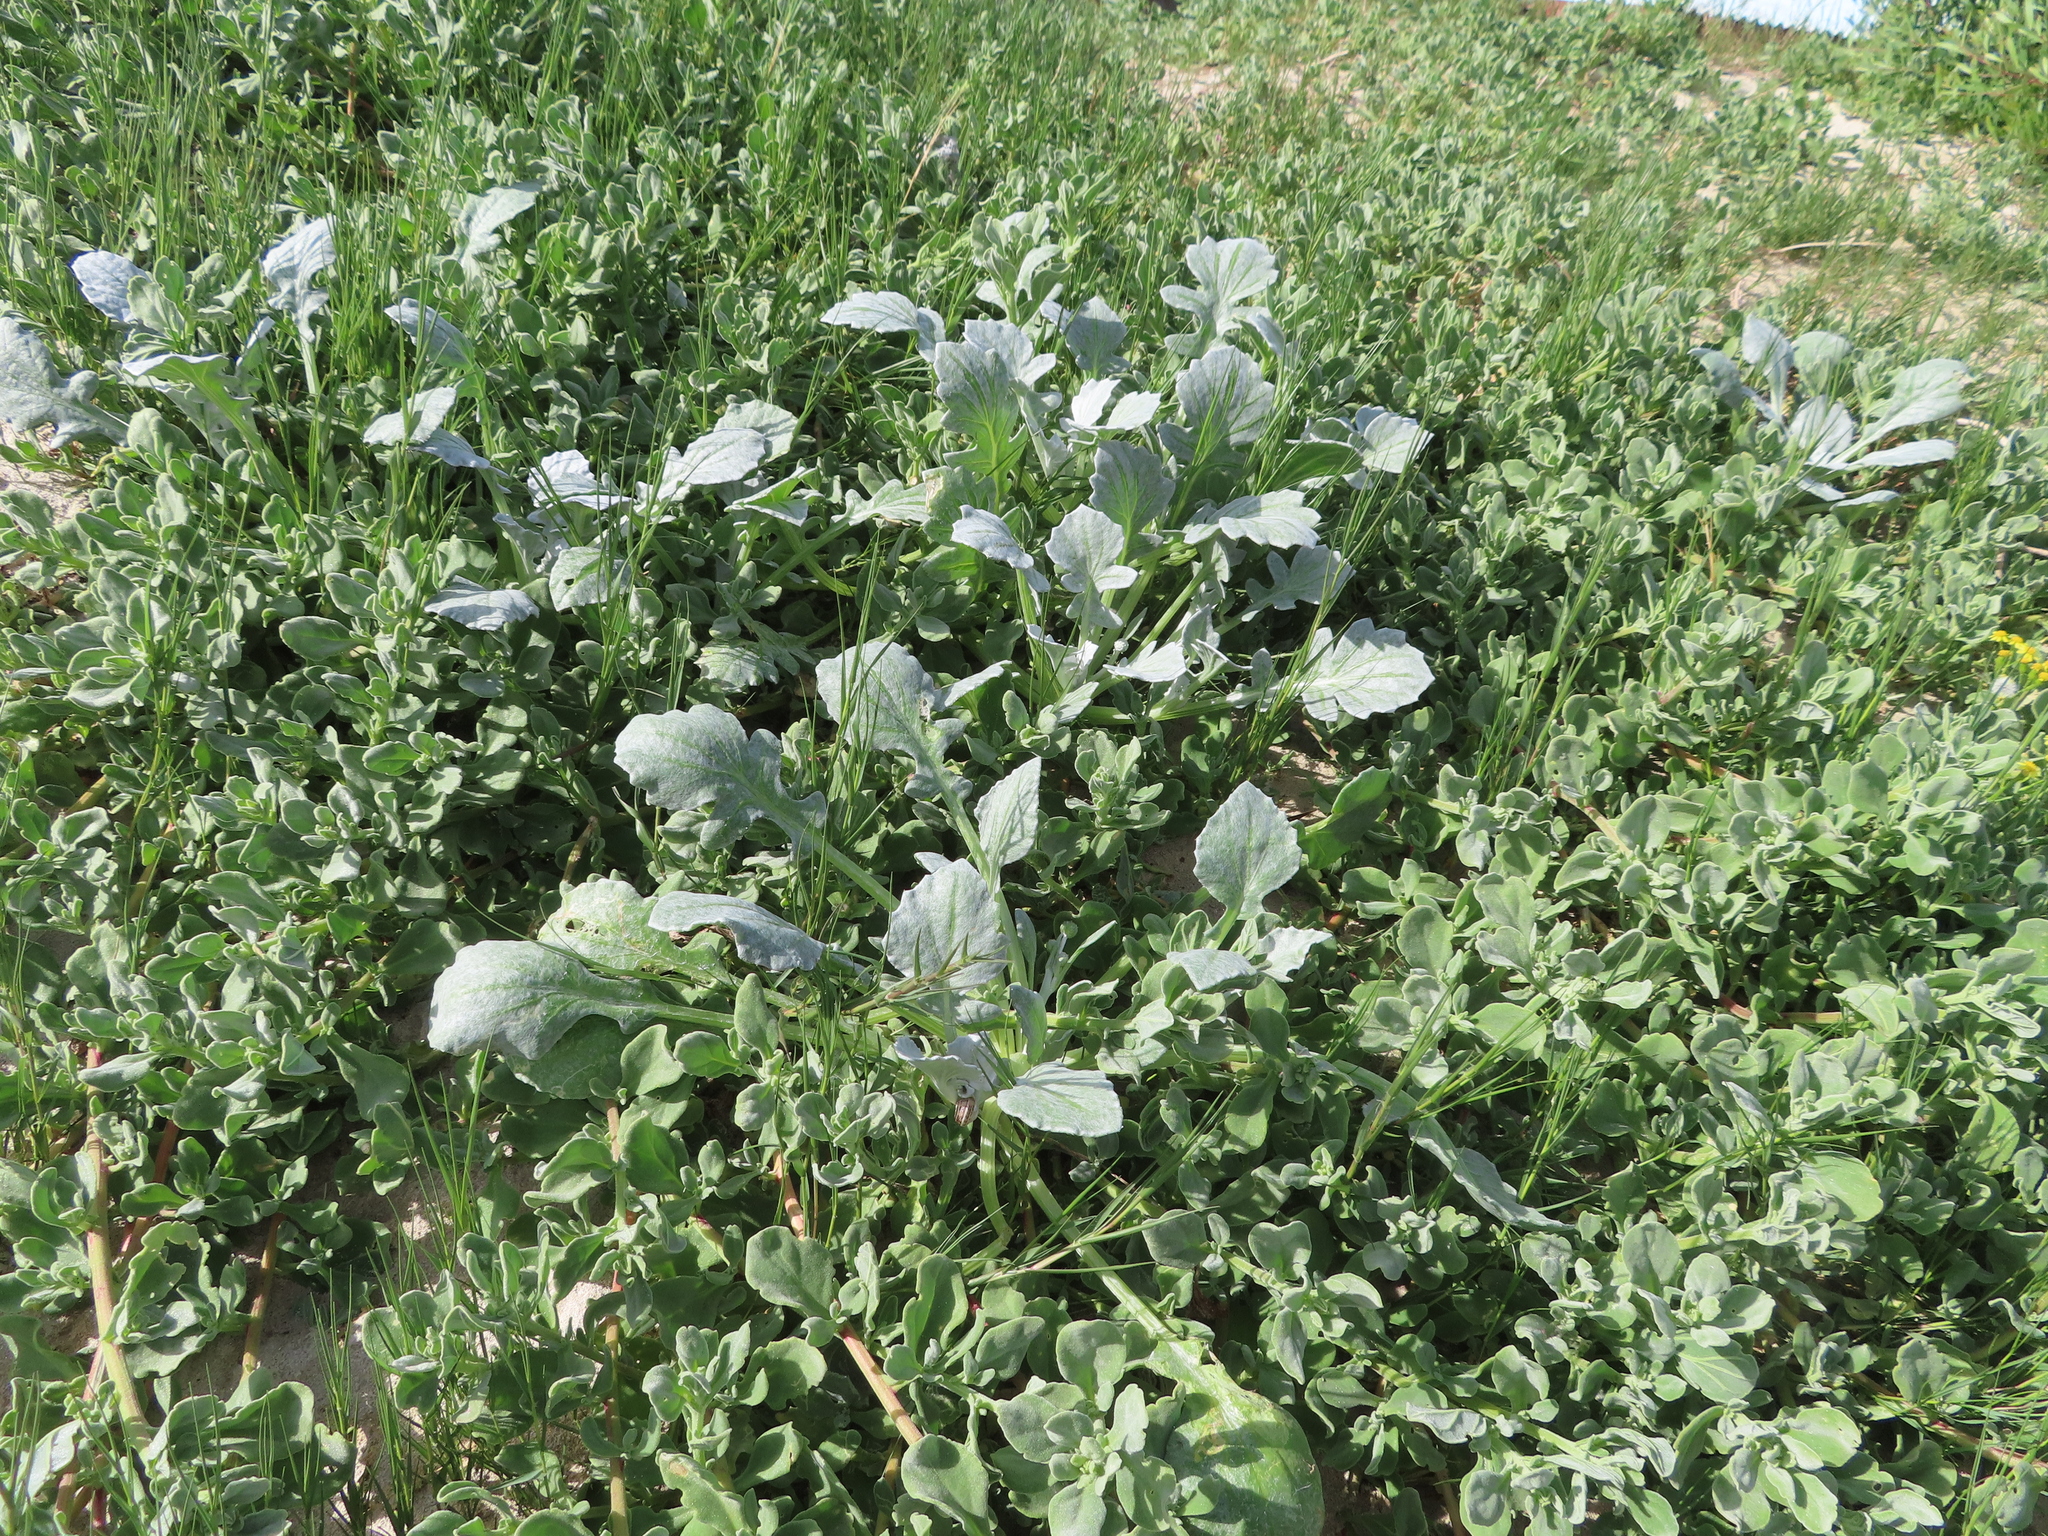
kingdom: Plantae
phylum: Tracheophyta
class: Magnoliopsida
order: Asterales
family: Asteraceae
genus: Arctotheca
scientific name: Arctotheca populifolia
